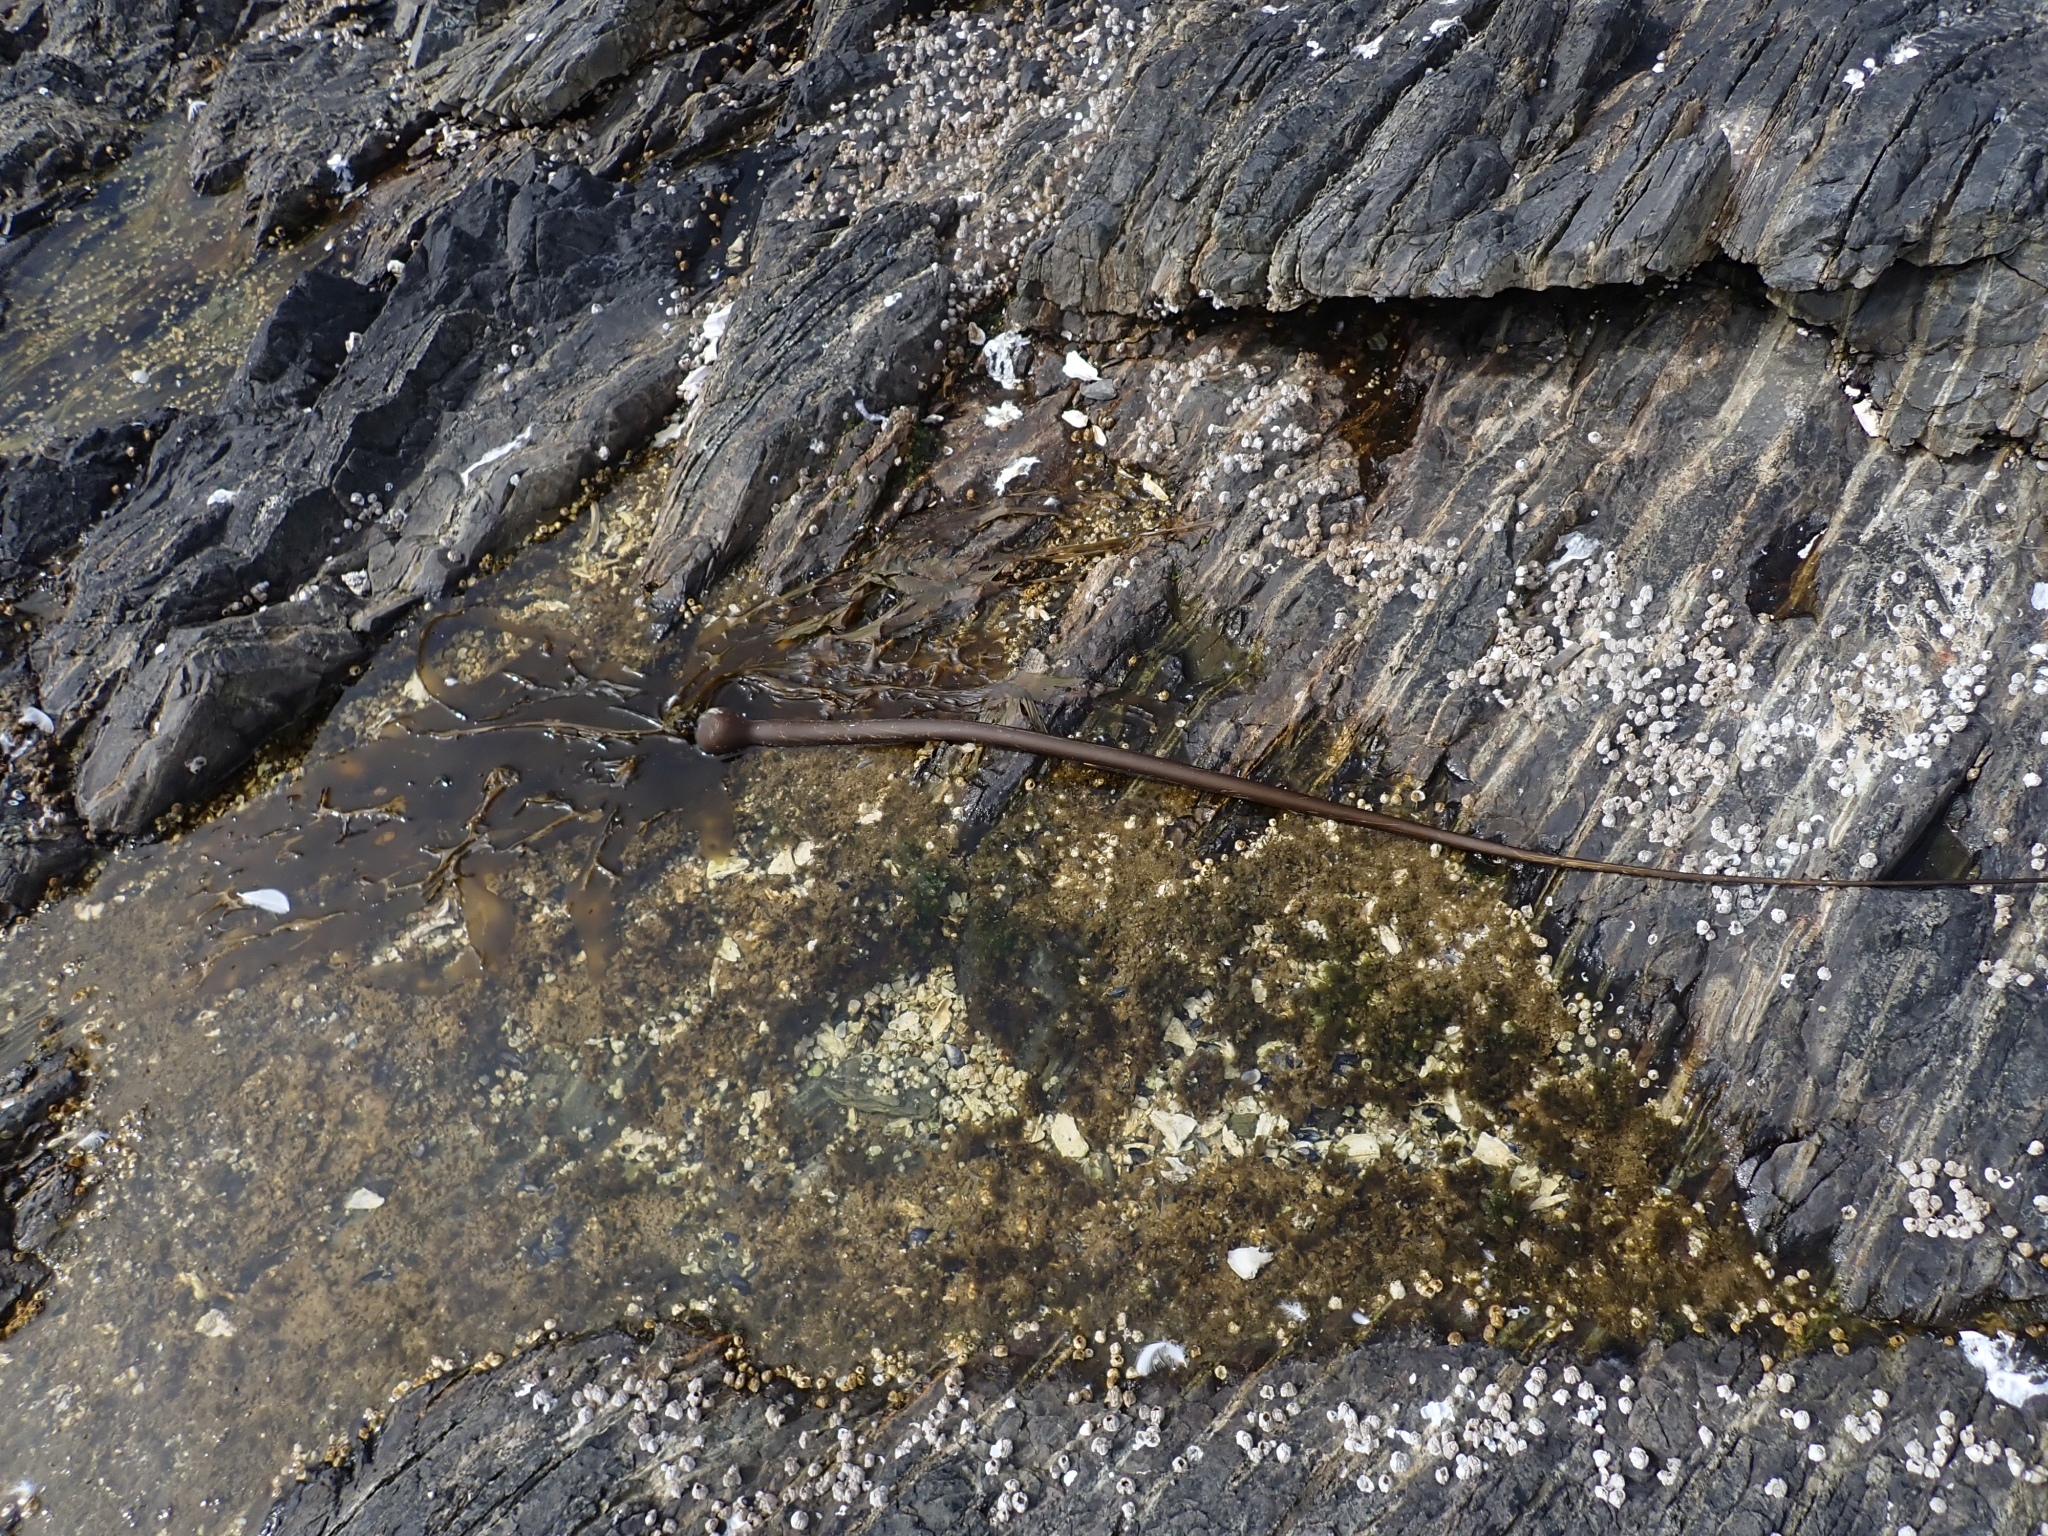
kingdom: Chromista
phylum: Ochrophyta
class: Phaeophyceae
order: Laminariales
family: Laminariaceae
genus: Nereocystis
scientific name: Nereocystis luetkeana
